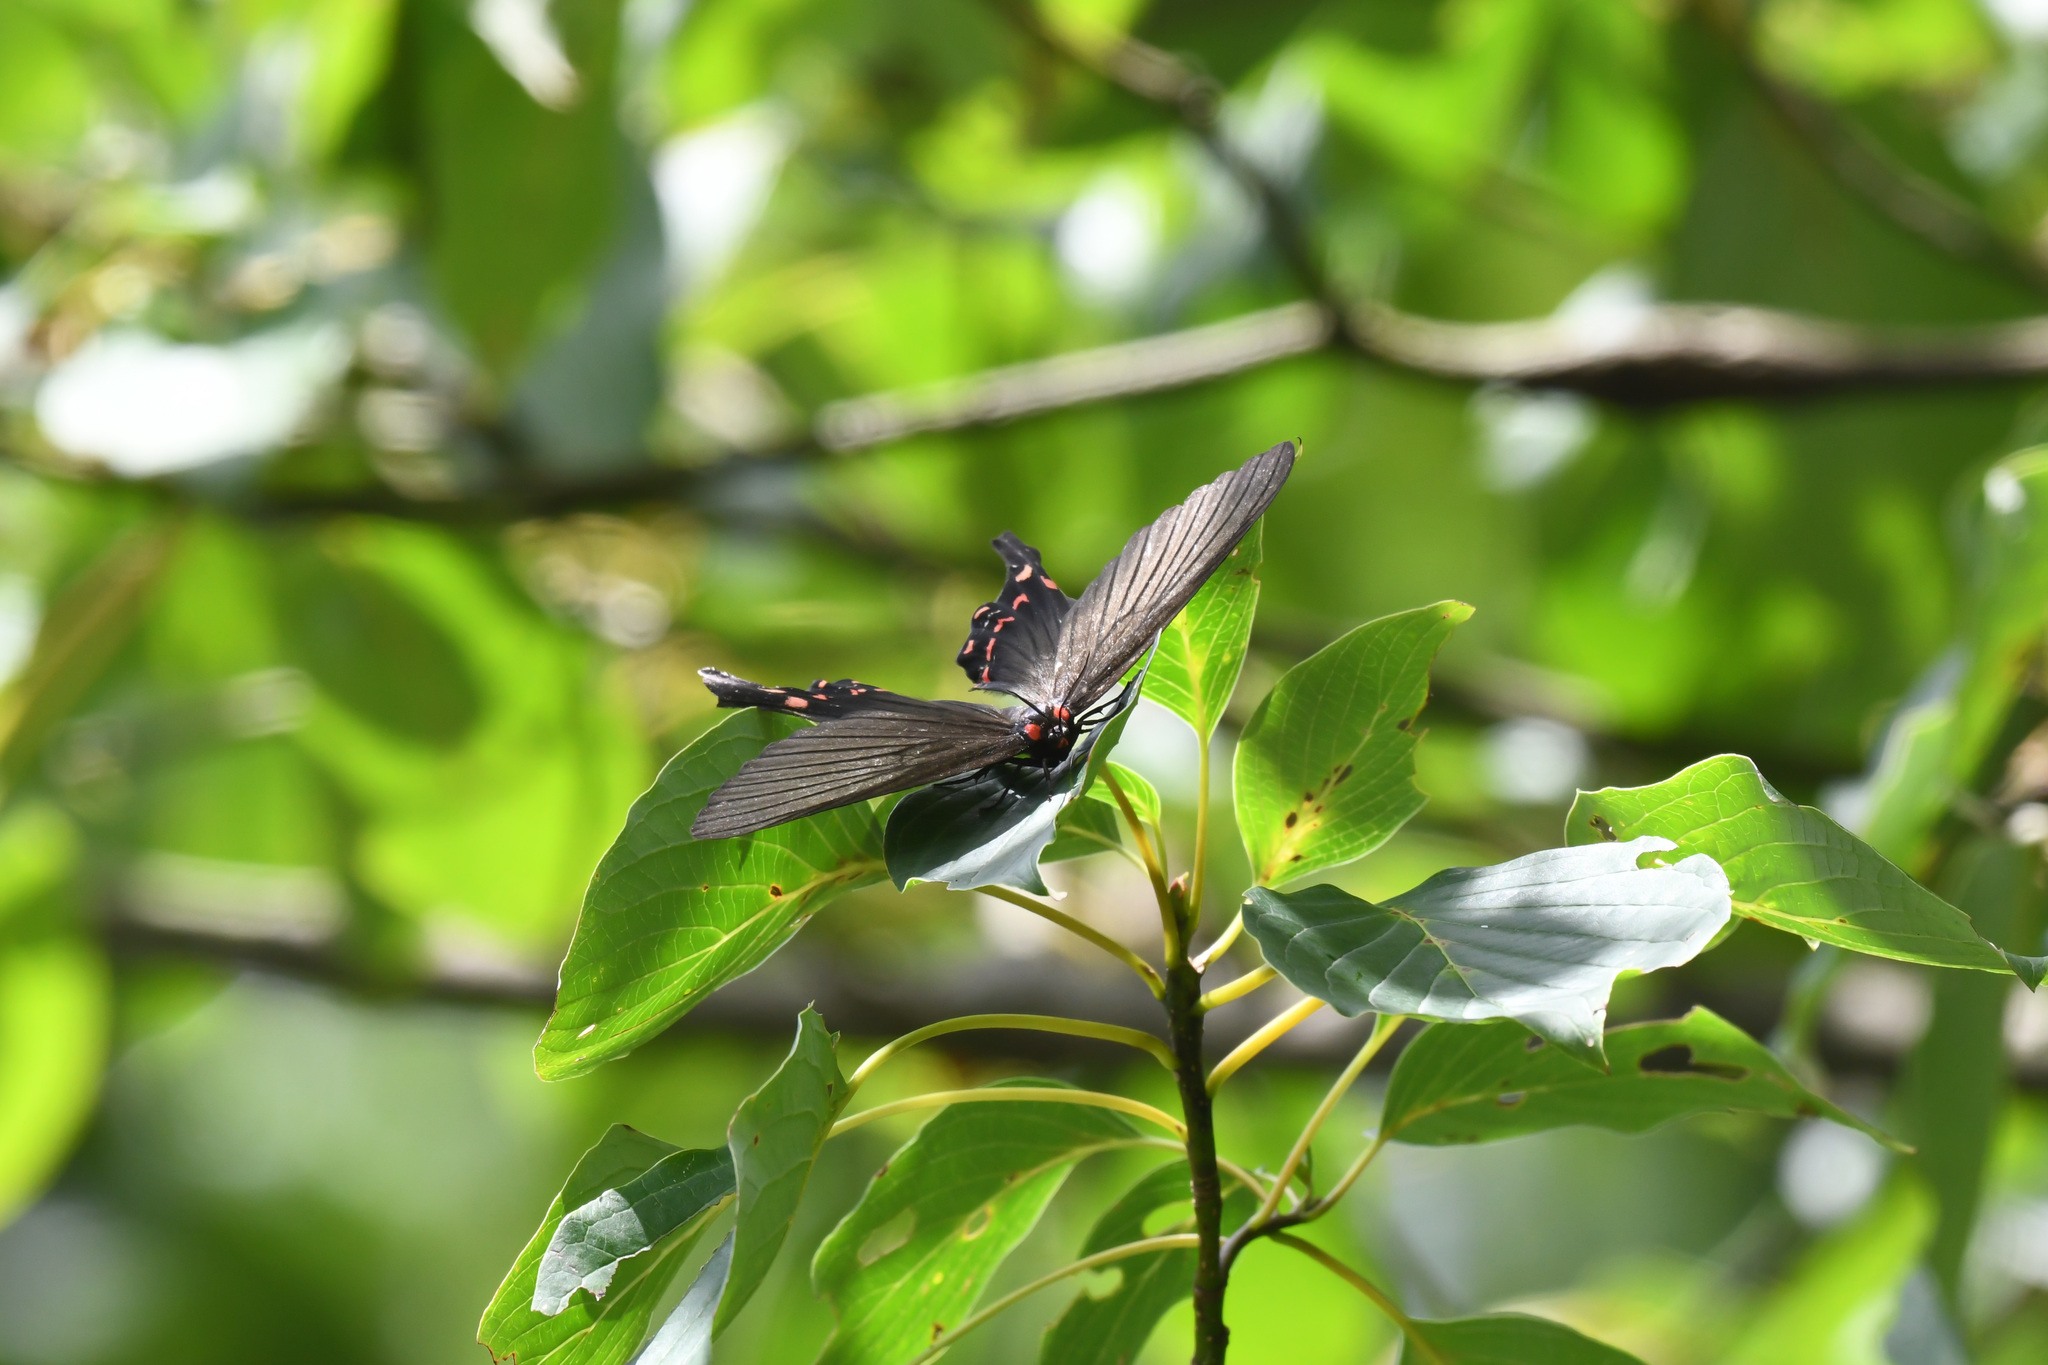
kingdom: Animalia
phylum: Arthropoda
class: Insecta
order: Lepidoptera
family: Epicopeiidae
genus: Epicopeia
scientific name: Epicopeia mencia
